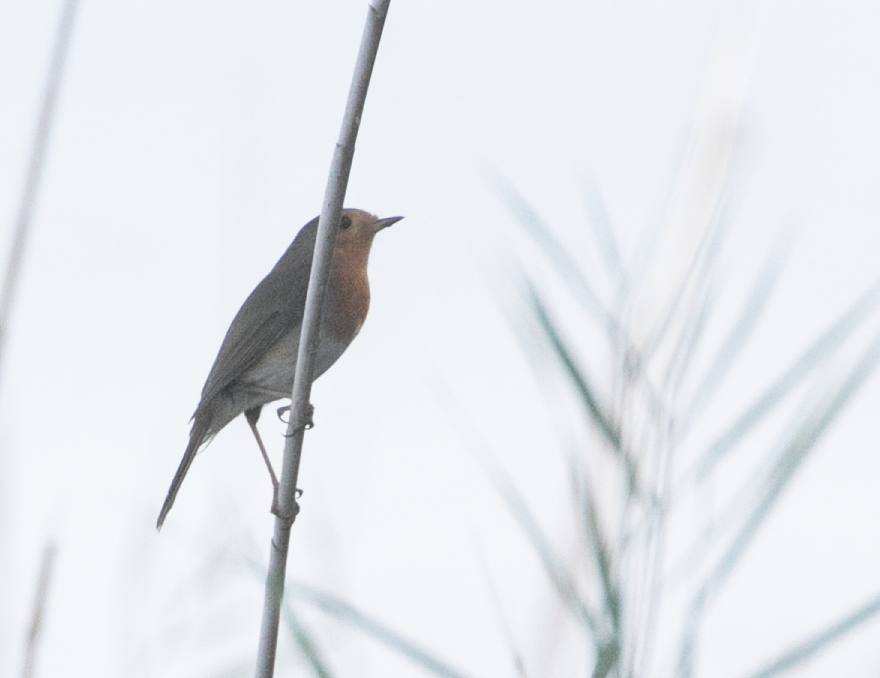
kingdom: Animalia
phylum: Chordata
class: Aves
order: Passeriformes
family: Muscicapidae
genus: Erithacus
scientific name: Erithacus rubecula
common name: European robin
